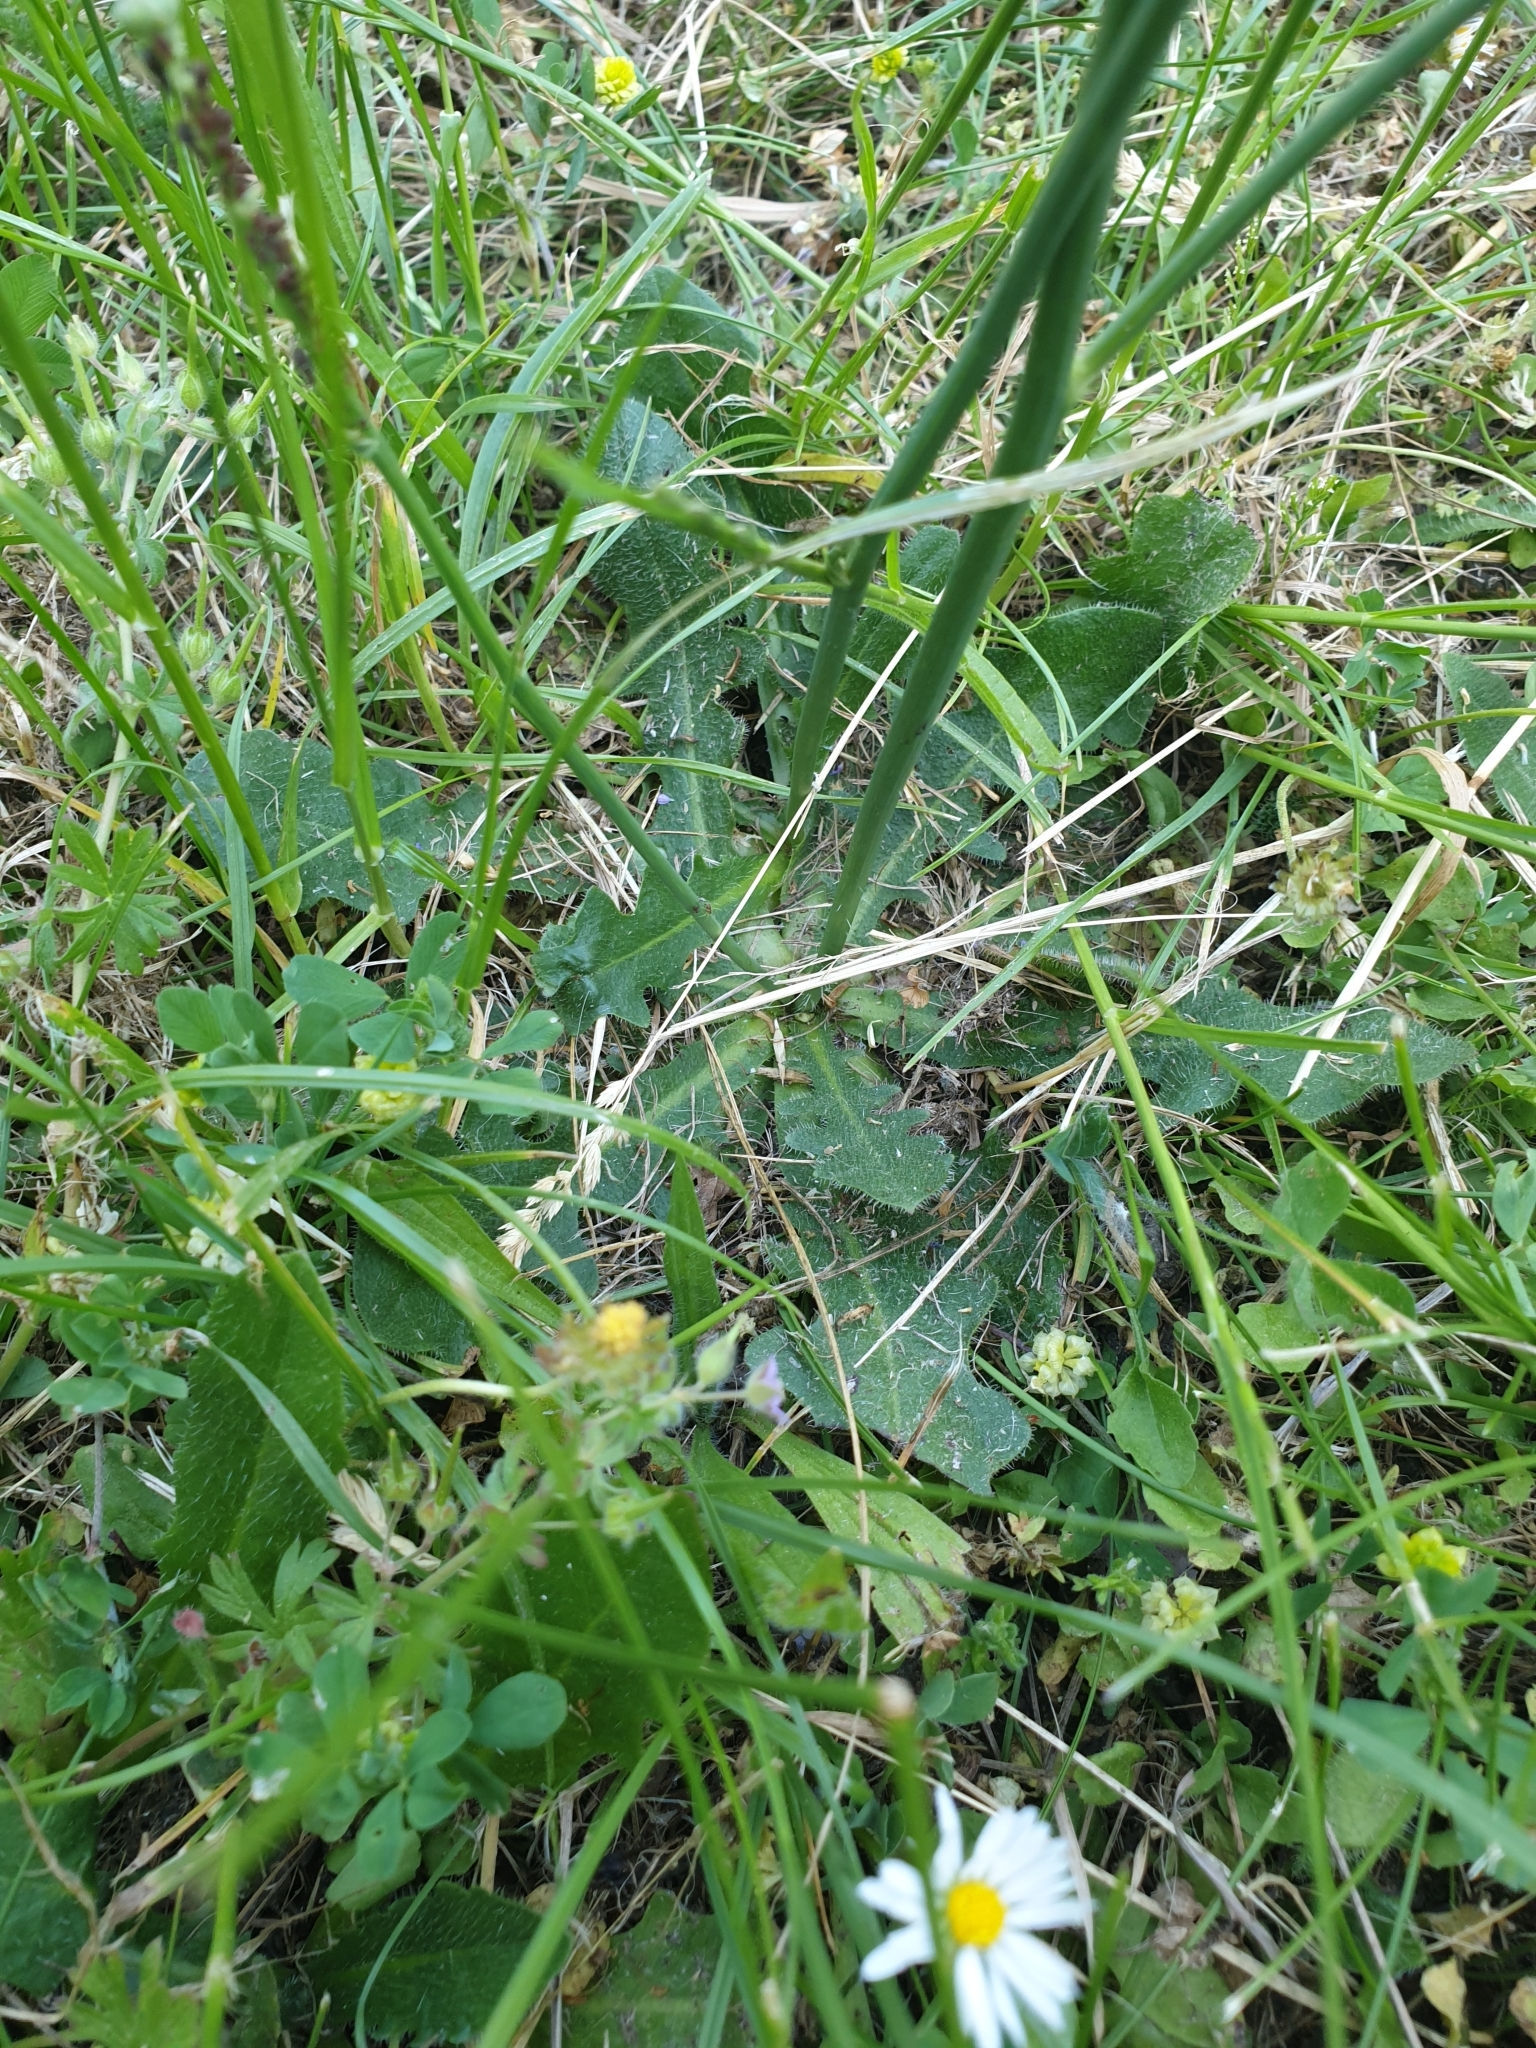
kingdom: Plantae
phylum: Tracheophyta
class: Magnoliopsida
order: Asterales
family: Asteraceae
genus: Hypochaeris
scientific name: Hypochaeris radicata
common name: Flatweed
